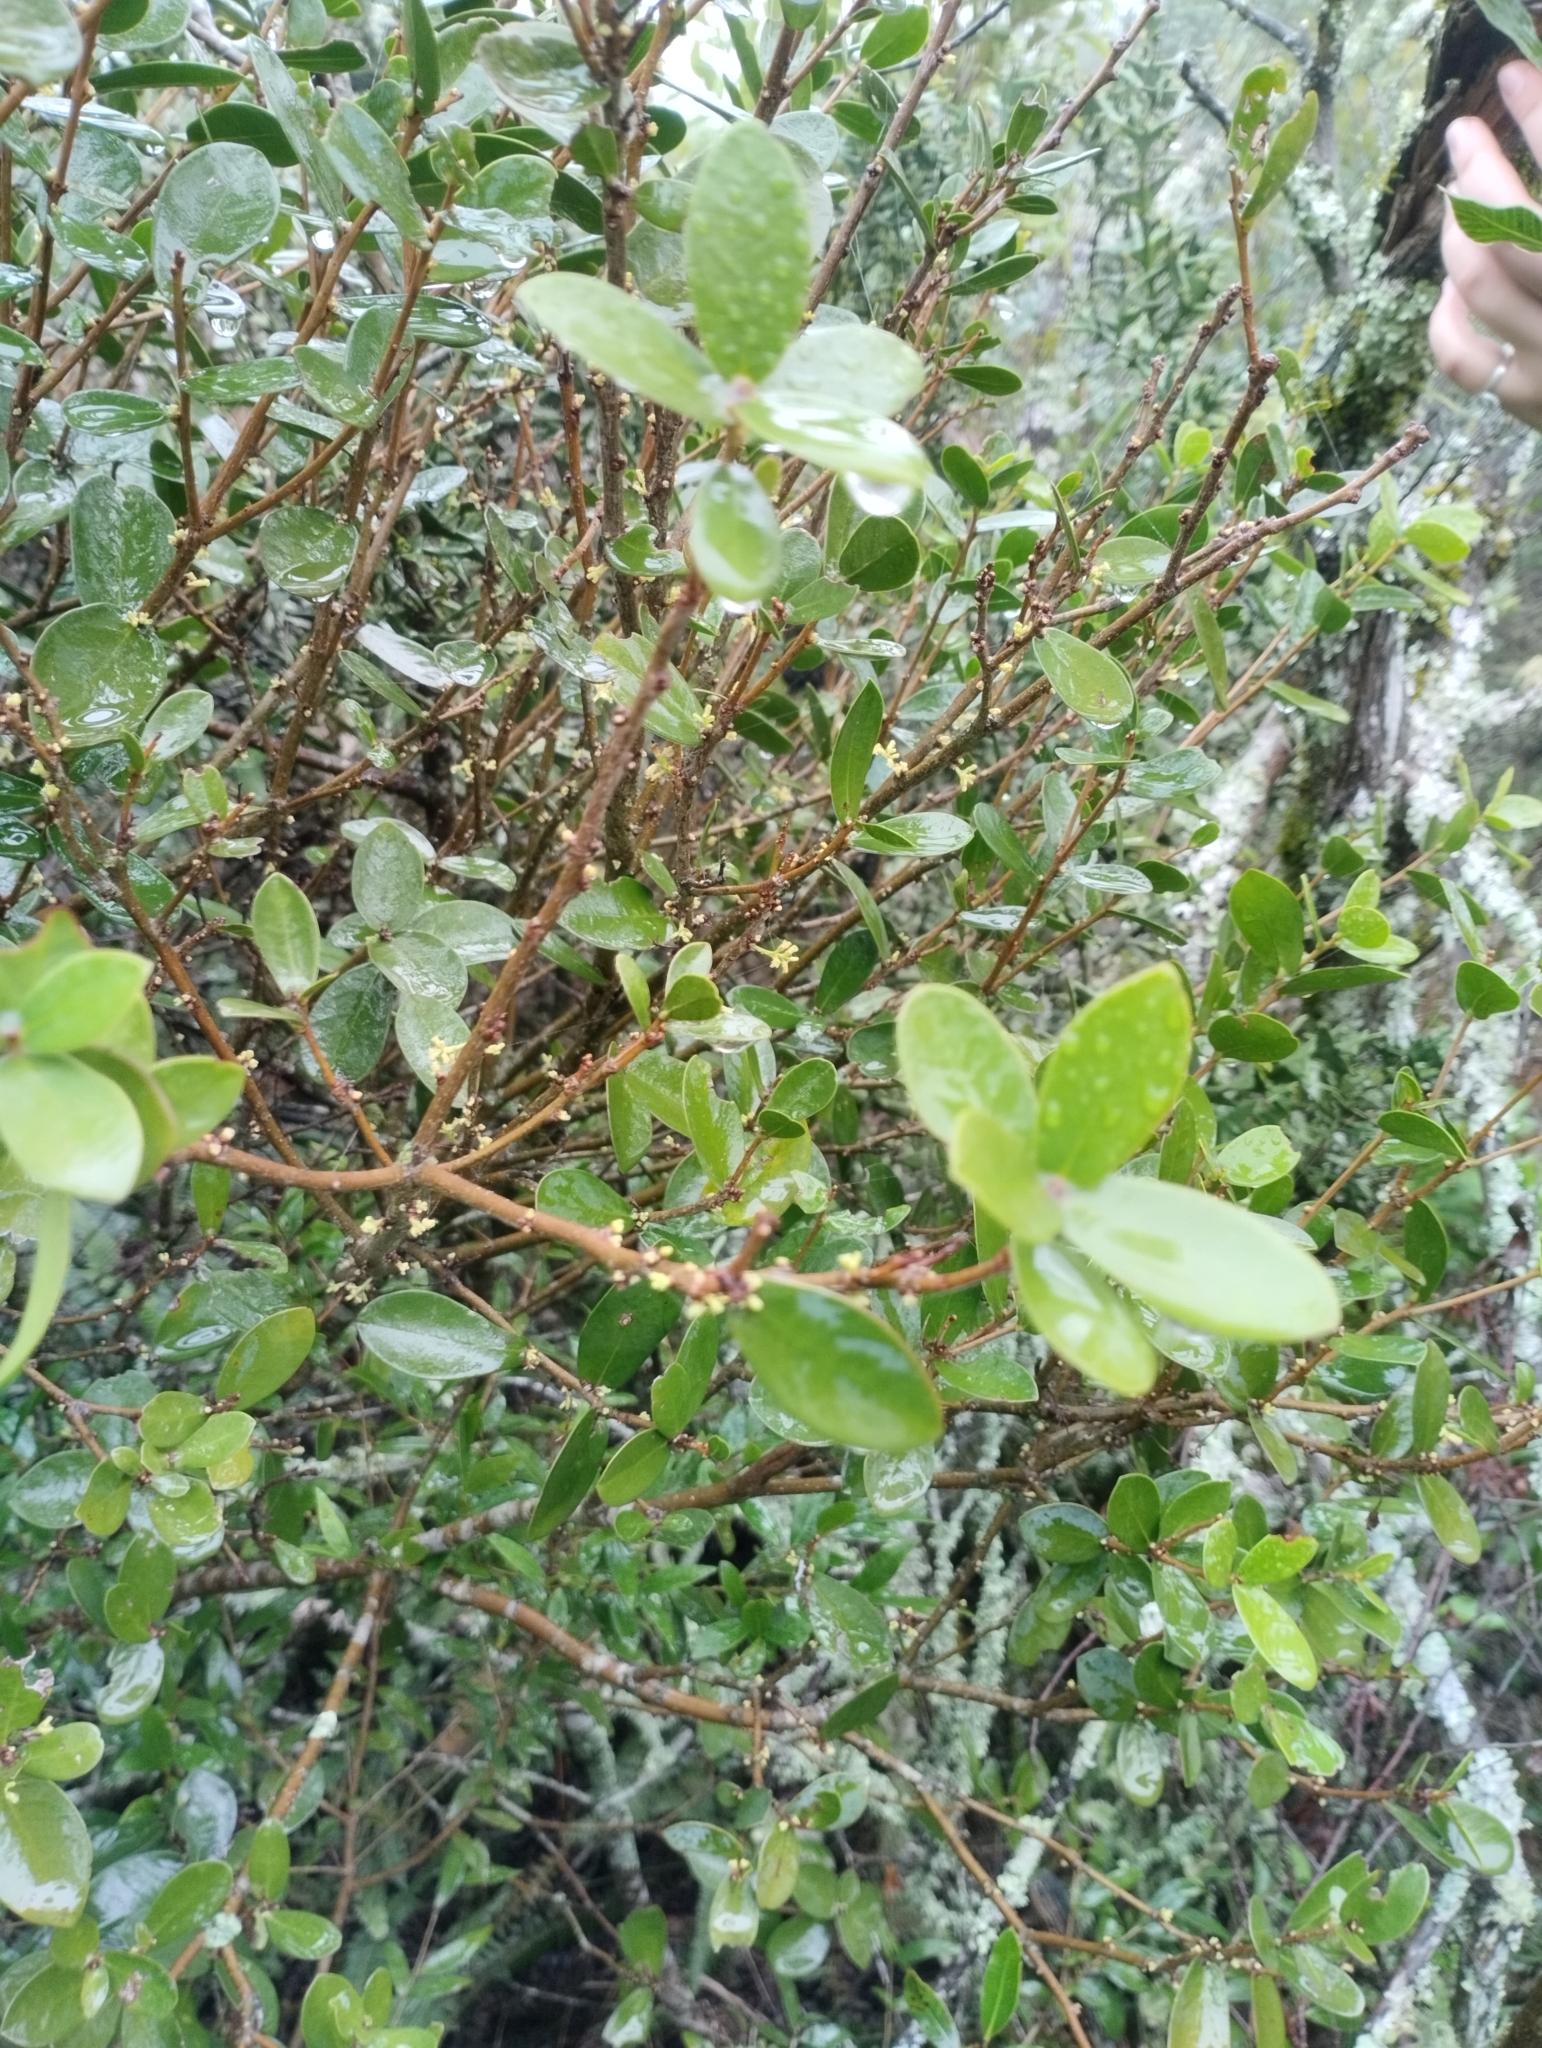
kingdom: Plantae
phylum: Tracheophyta
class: Magnoliopsida
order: Malvales
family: Thymelaeaceae
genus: Daphnopsis
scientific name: Daphnopsis racemosa
